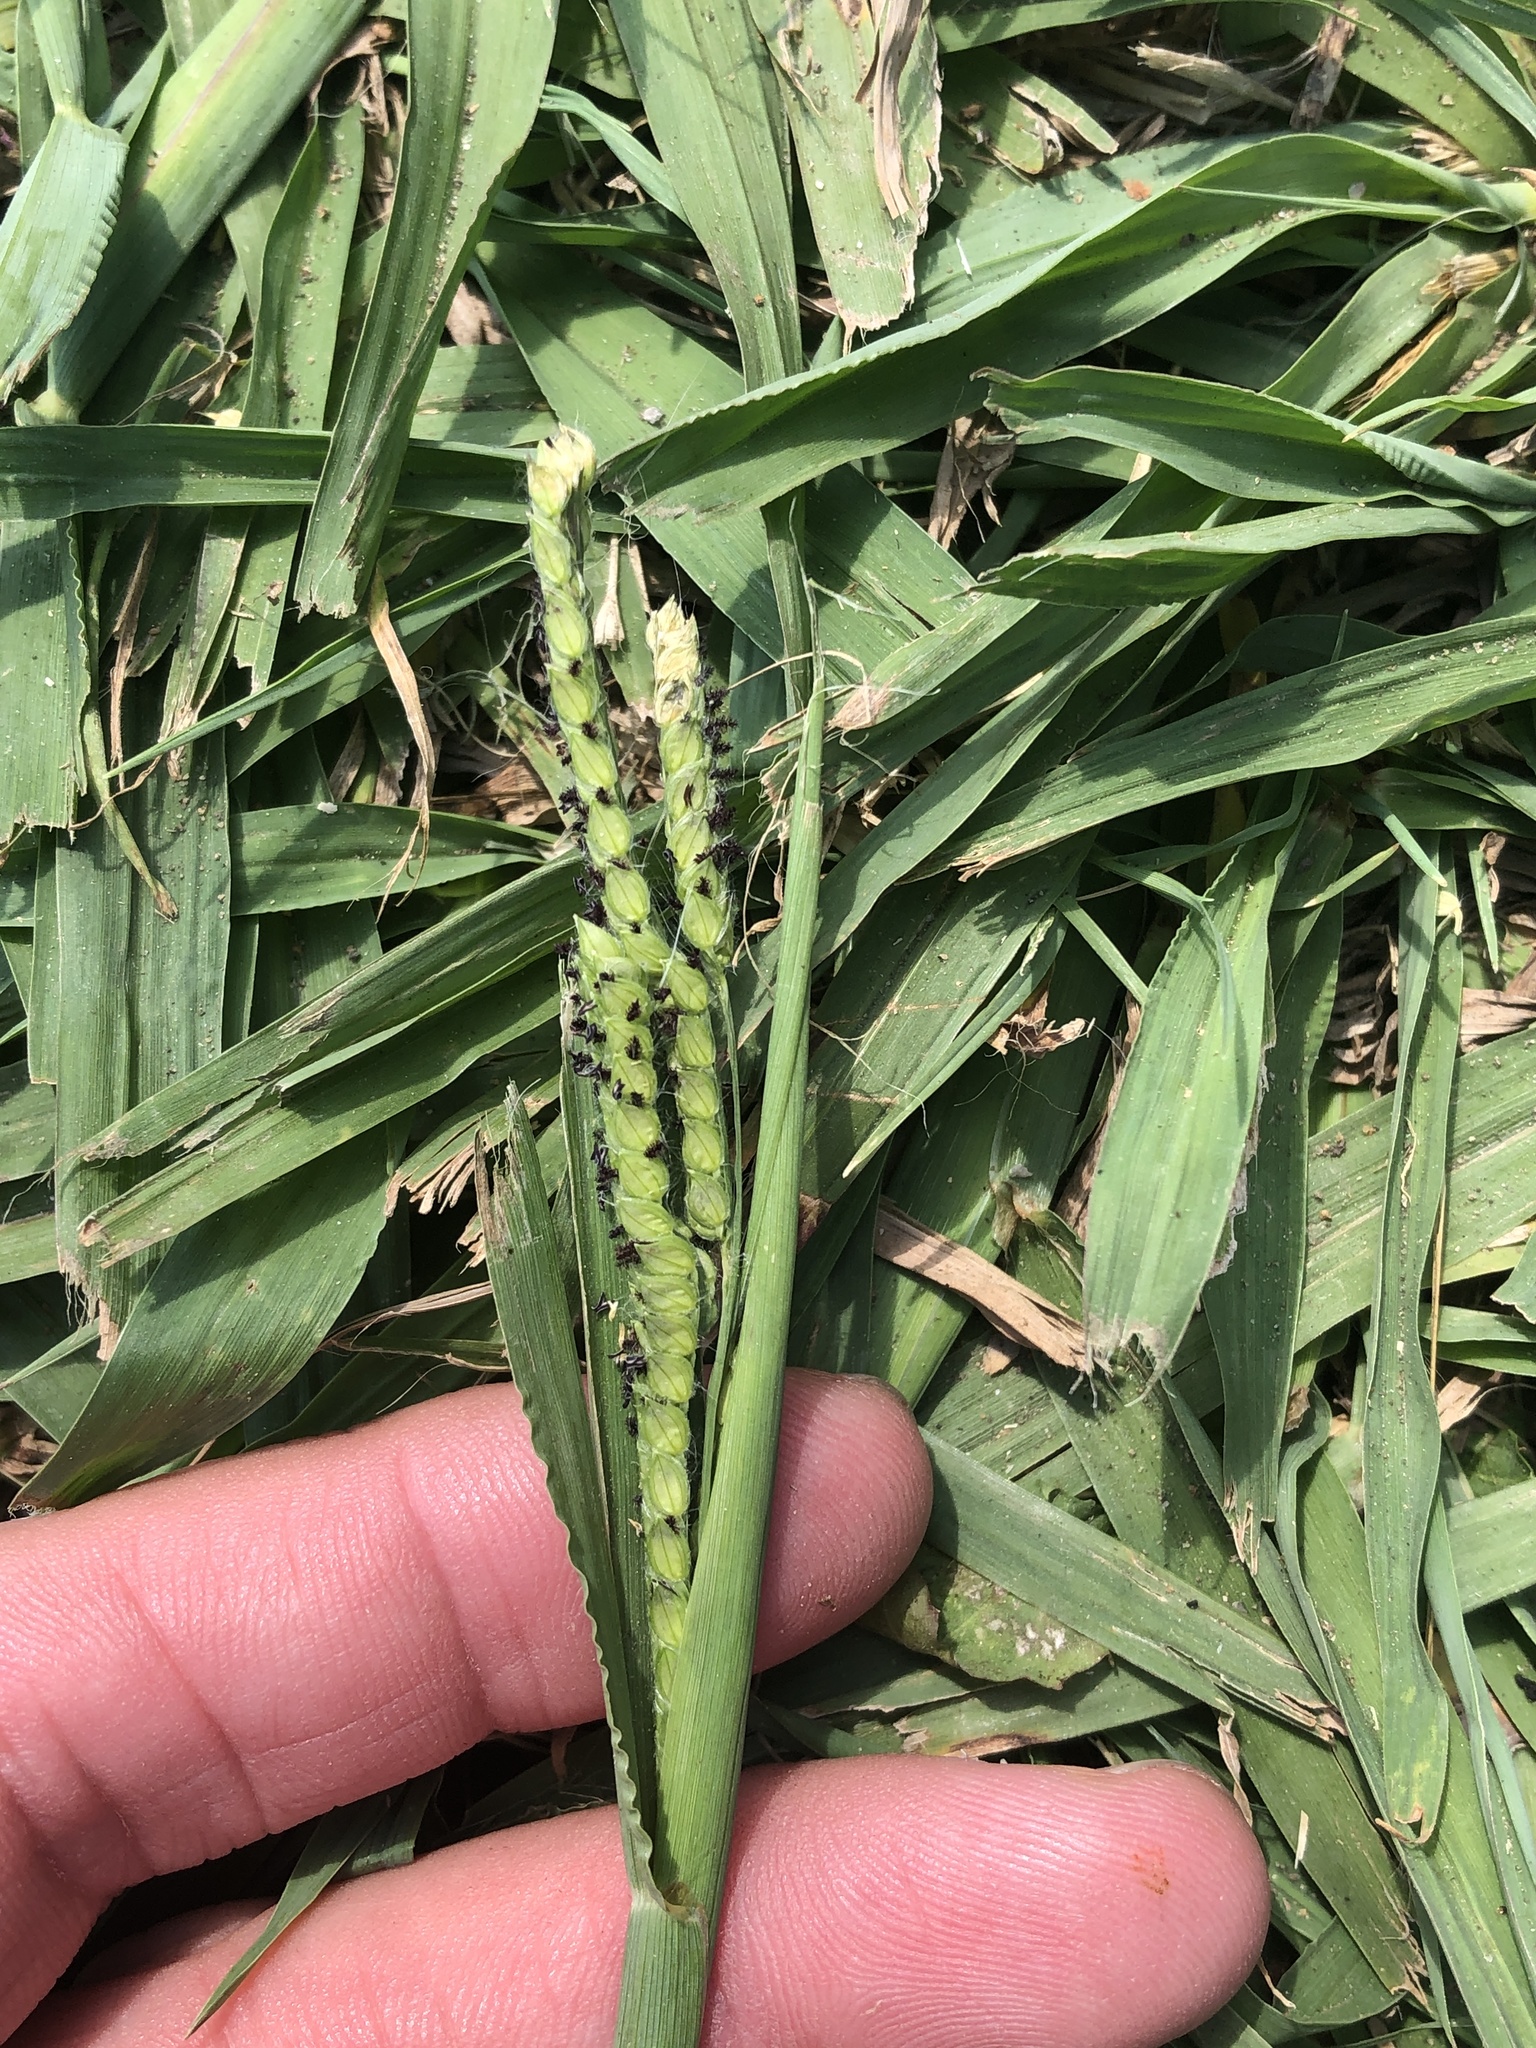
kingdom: Plantae
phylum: Tracheophyta
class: Liliopsida
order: Poales
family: Poaceae
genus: Paspalum
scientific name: Paspalum dilatatum
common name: Dallisgrass
